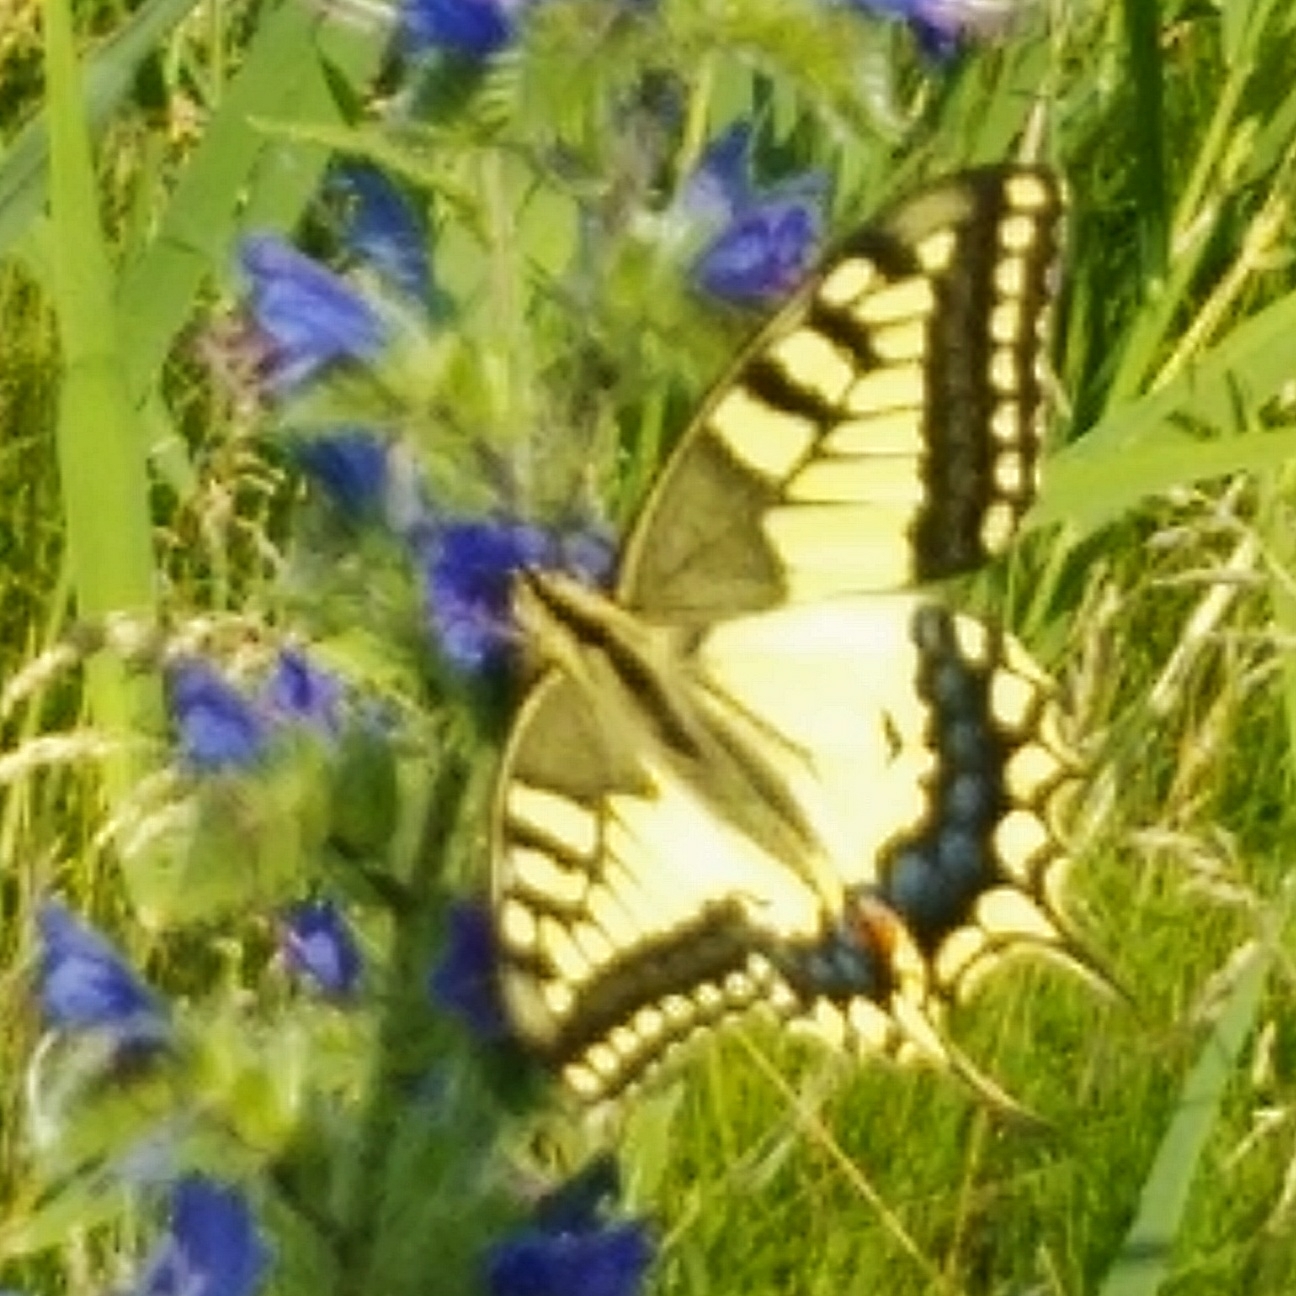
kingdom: Animalia
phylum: Arthropoda
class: Insecta
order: Lepidoptera
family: Papilionidae
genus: Papilio
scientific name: Papilio machaon
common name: Swallowtail
